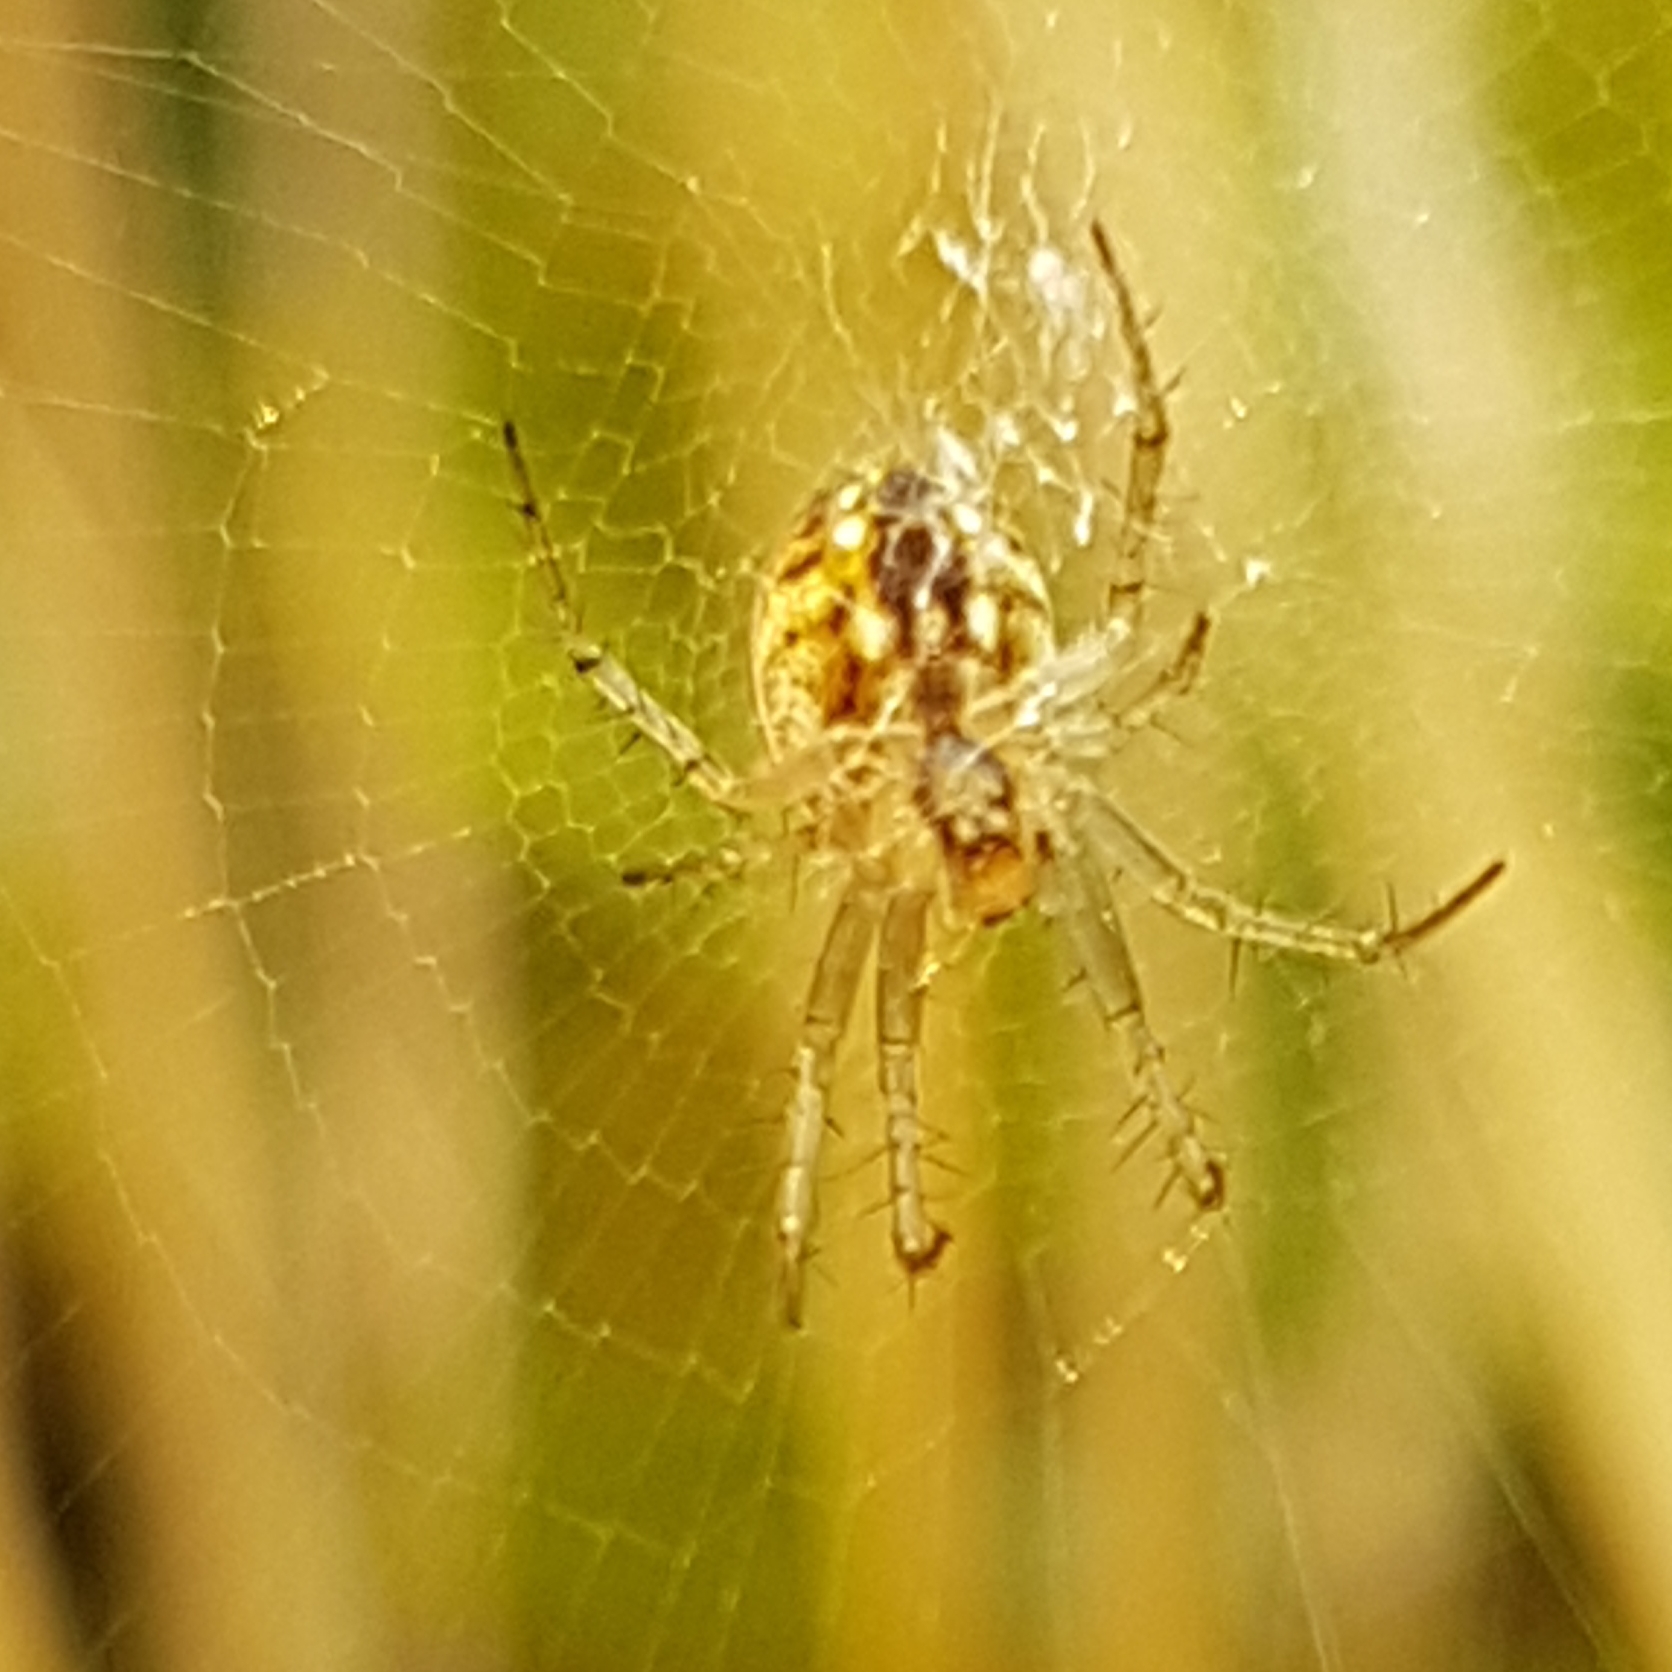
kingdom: Animalia
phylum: Arthropoda
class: Arachnida
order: Araneae
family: Araneidae
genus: Mangora
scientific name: Mangora acalypha
